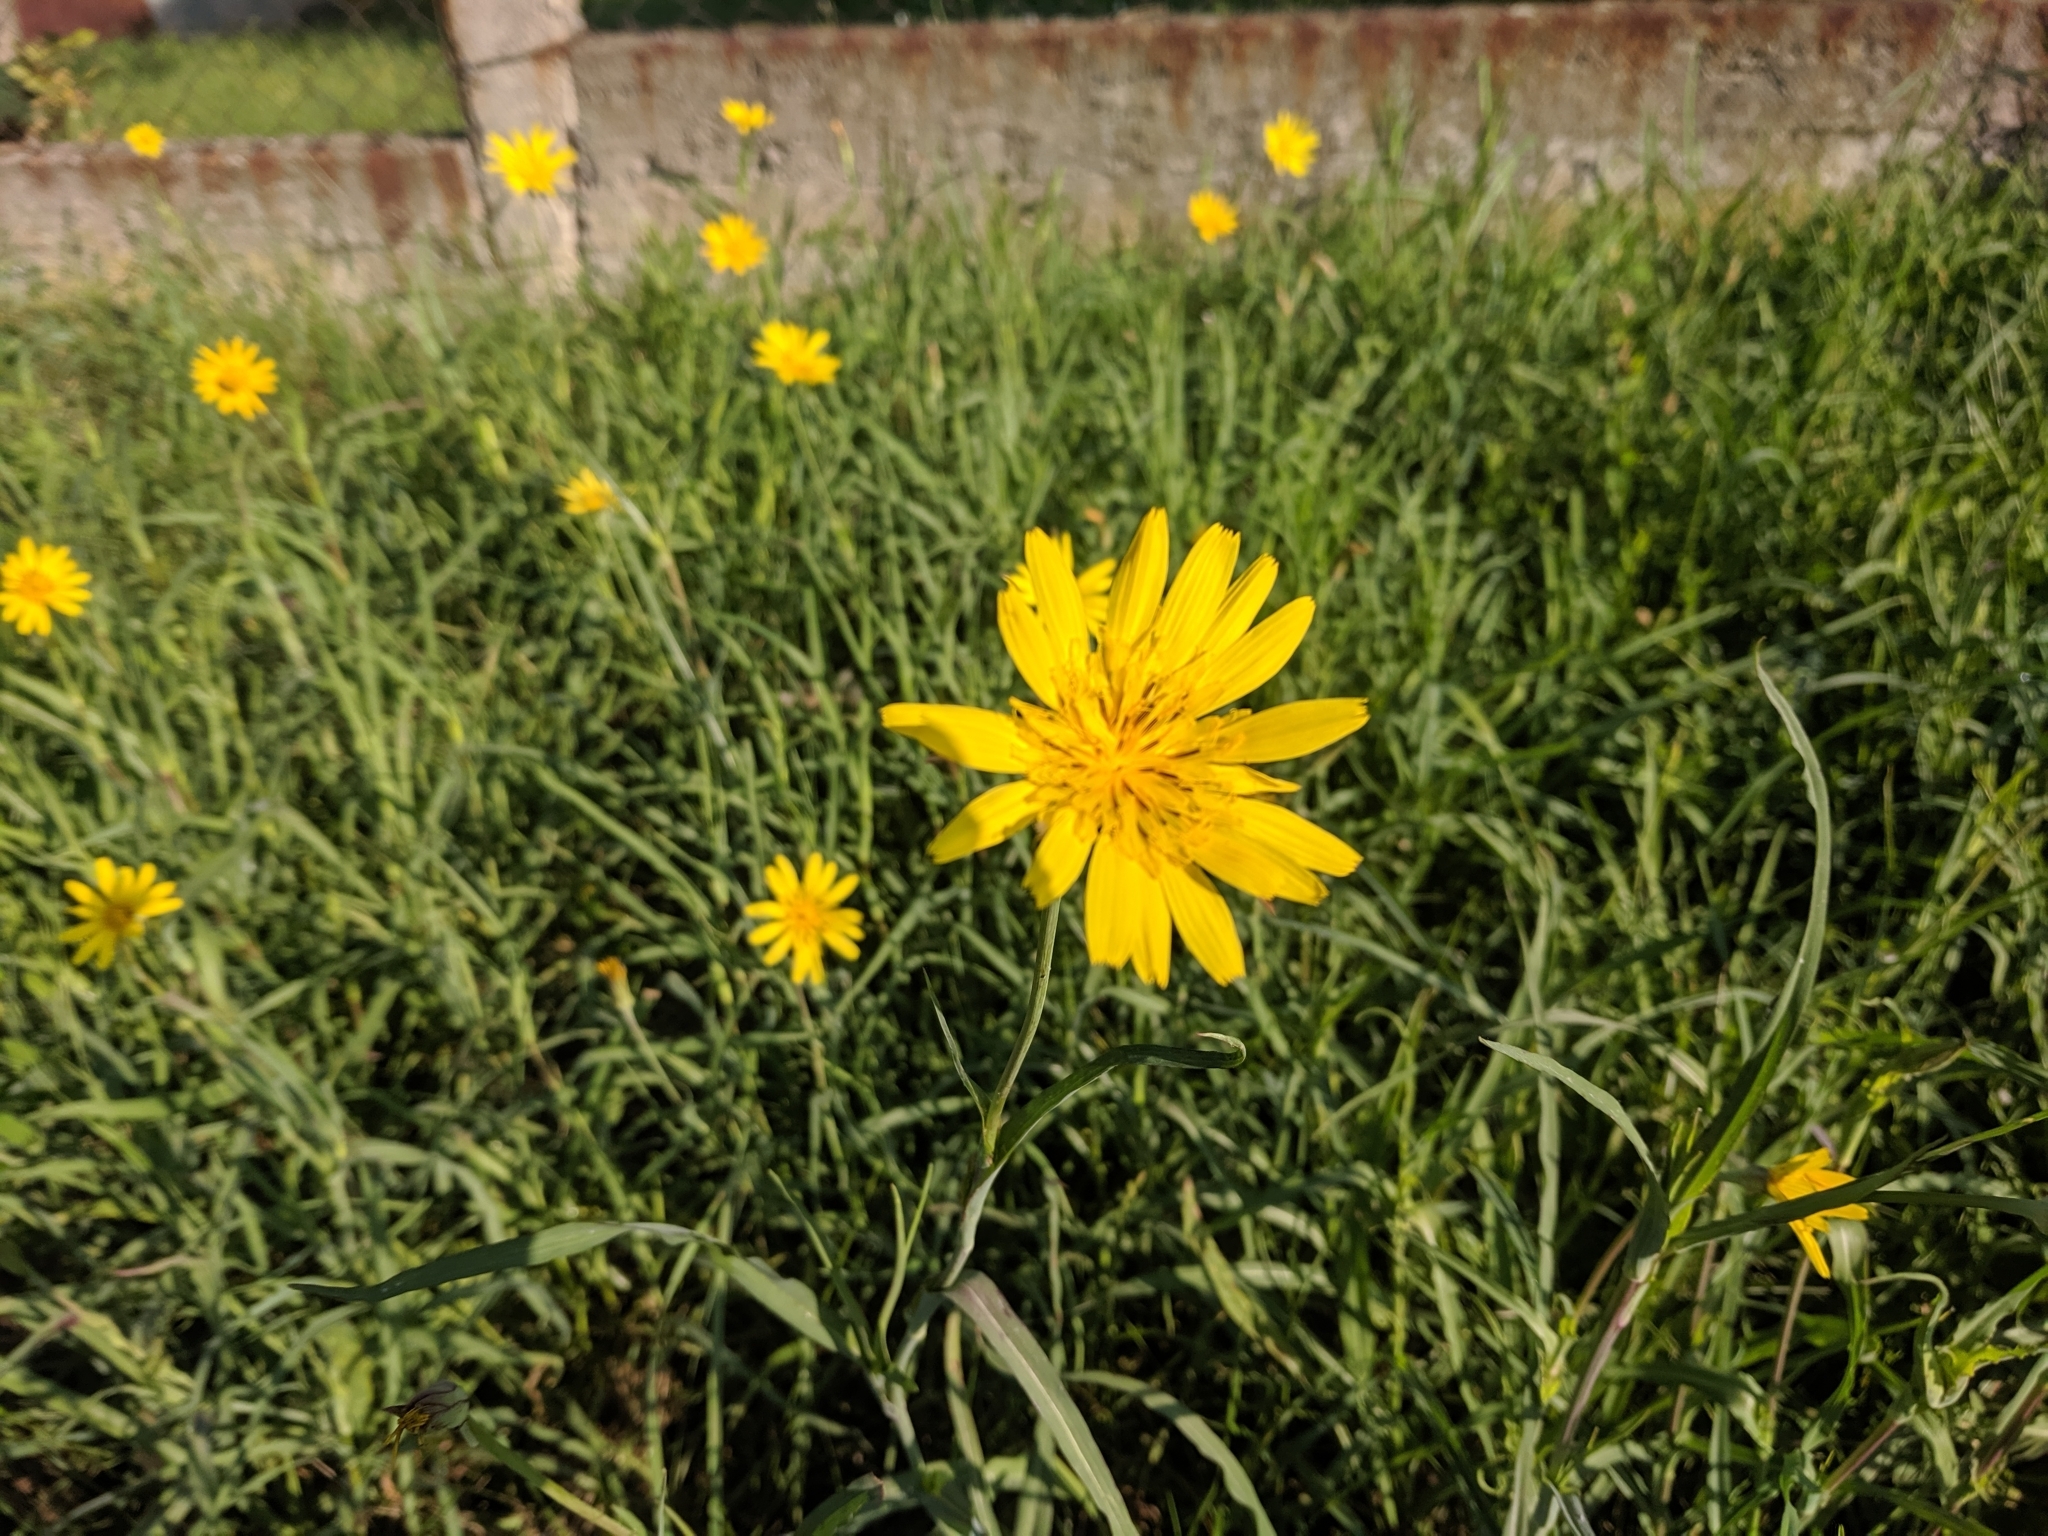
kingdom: Plantae
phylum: Tracheophyta
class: Magnoliopsida
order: Asterales
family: Asteraceae
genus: Tragopogon
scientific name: Tragopogon pratensis
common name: Goat's-beard
